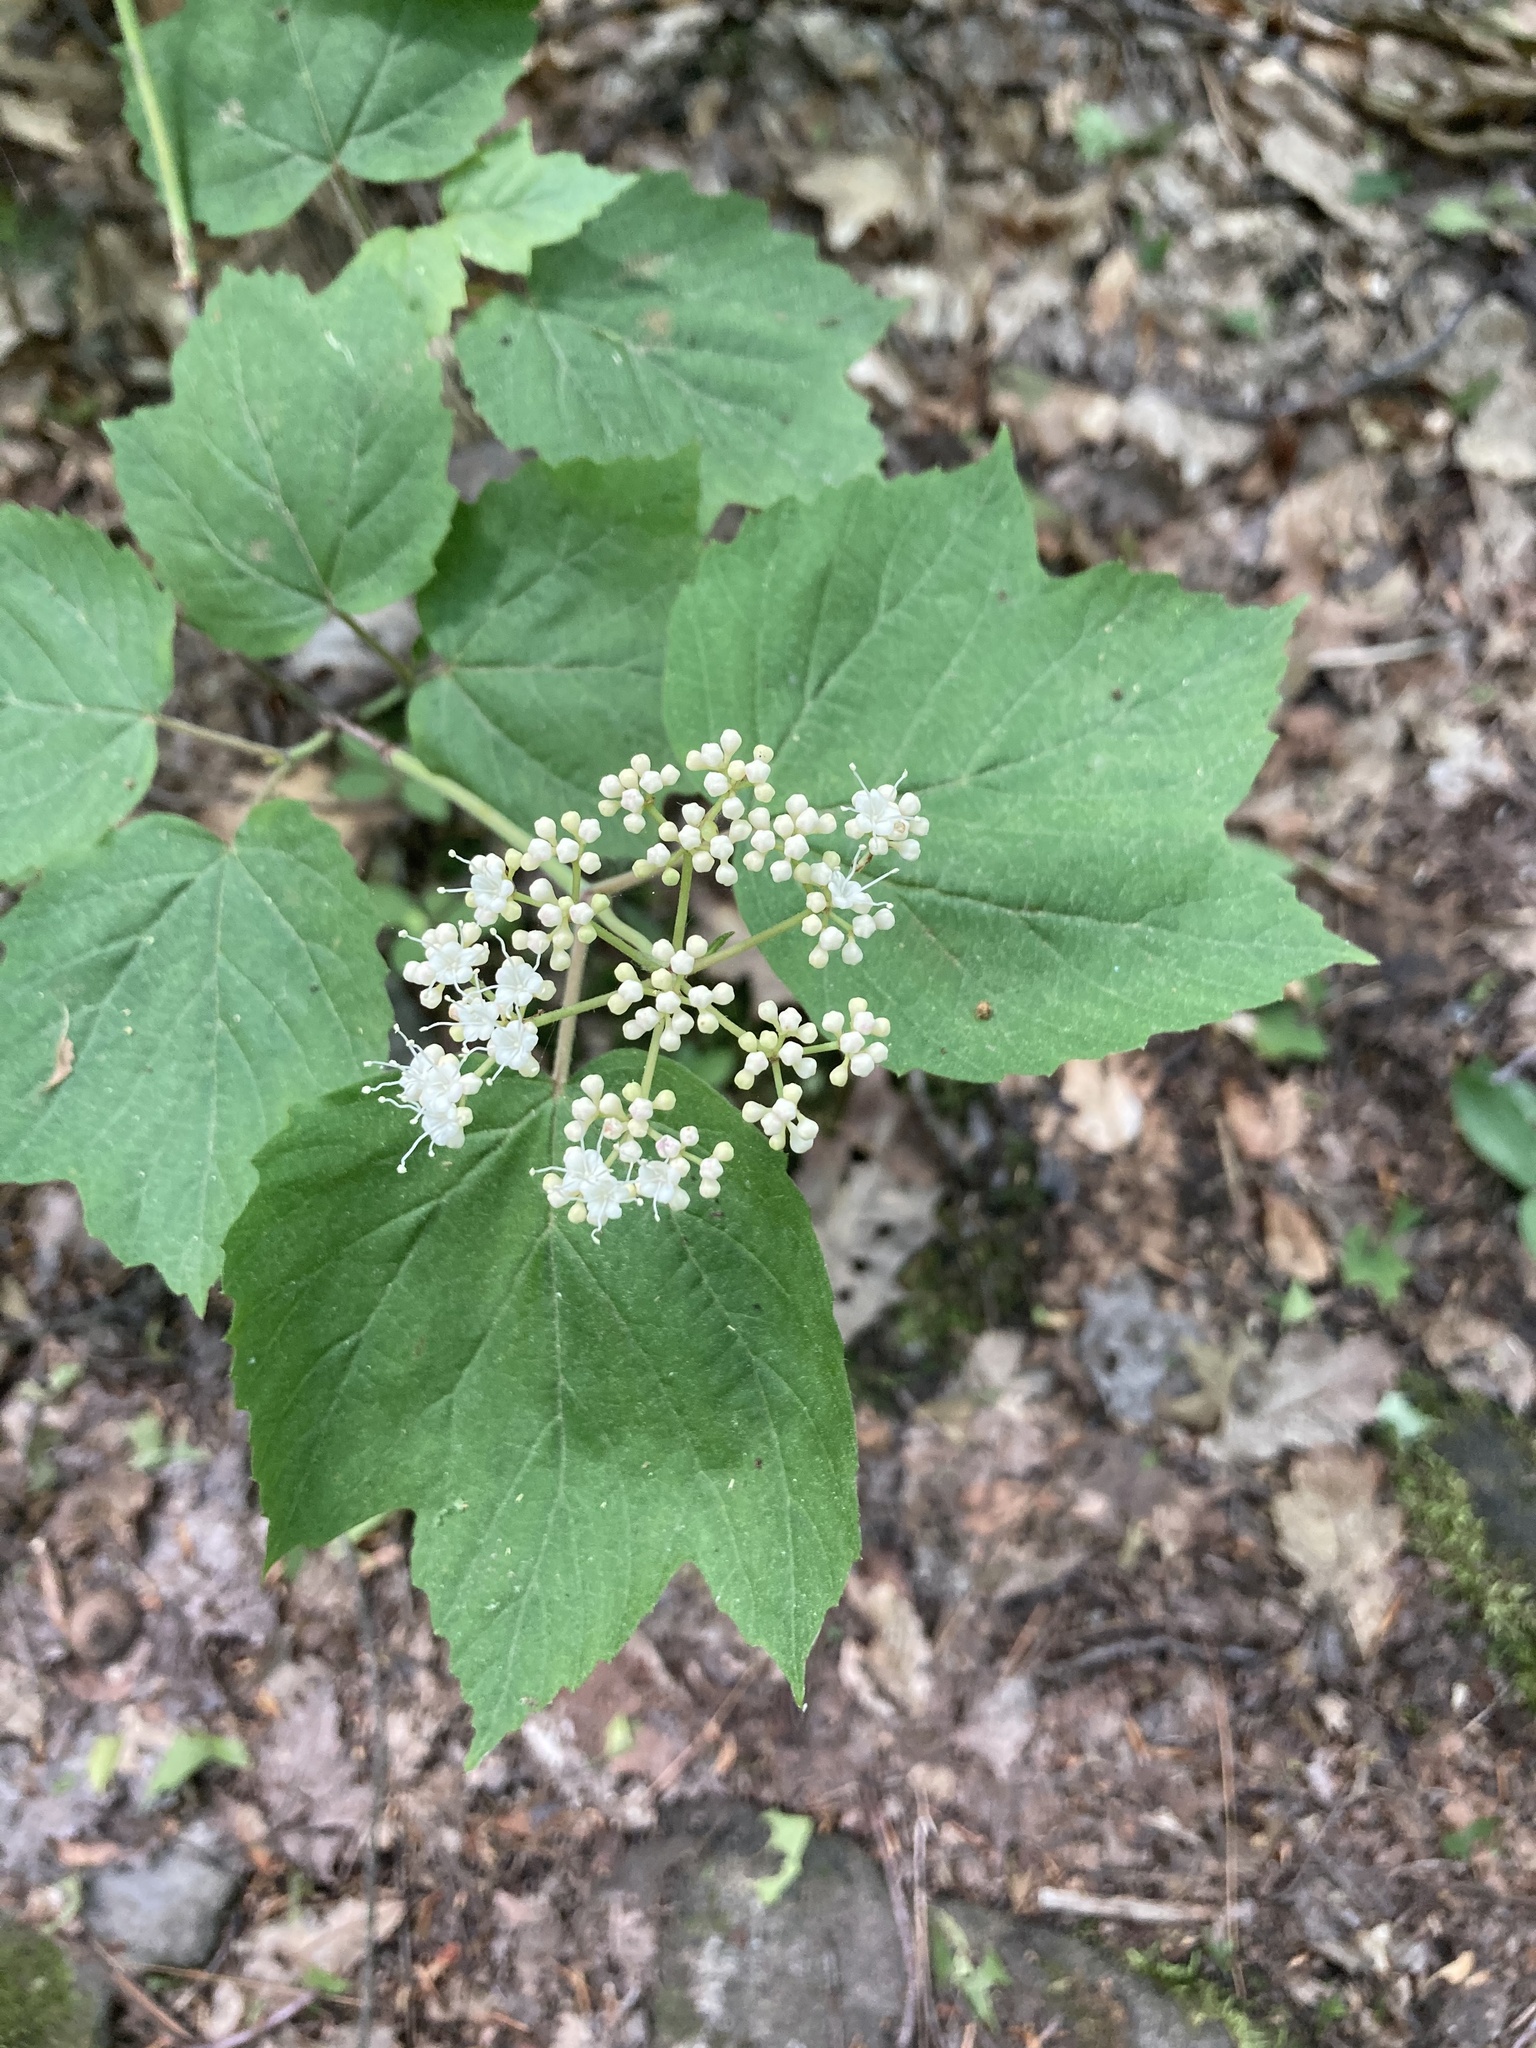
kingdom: Plantae
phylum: Tracheophyta
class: Magnoliopsida
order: Dipsacales
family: Viburnaceae
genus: Viburnum
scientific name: Viburnum acerifolium
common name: Dockmackie
